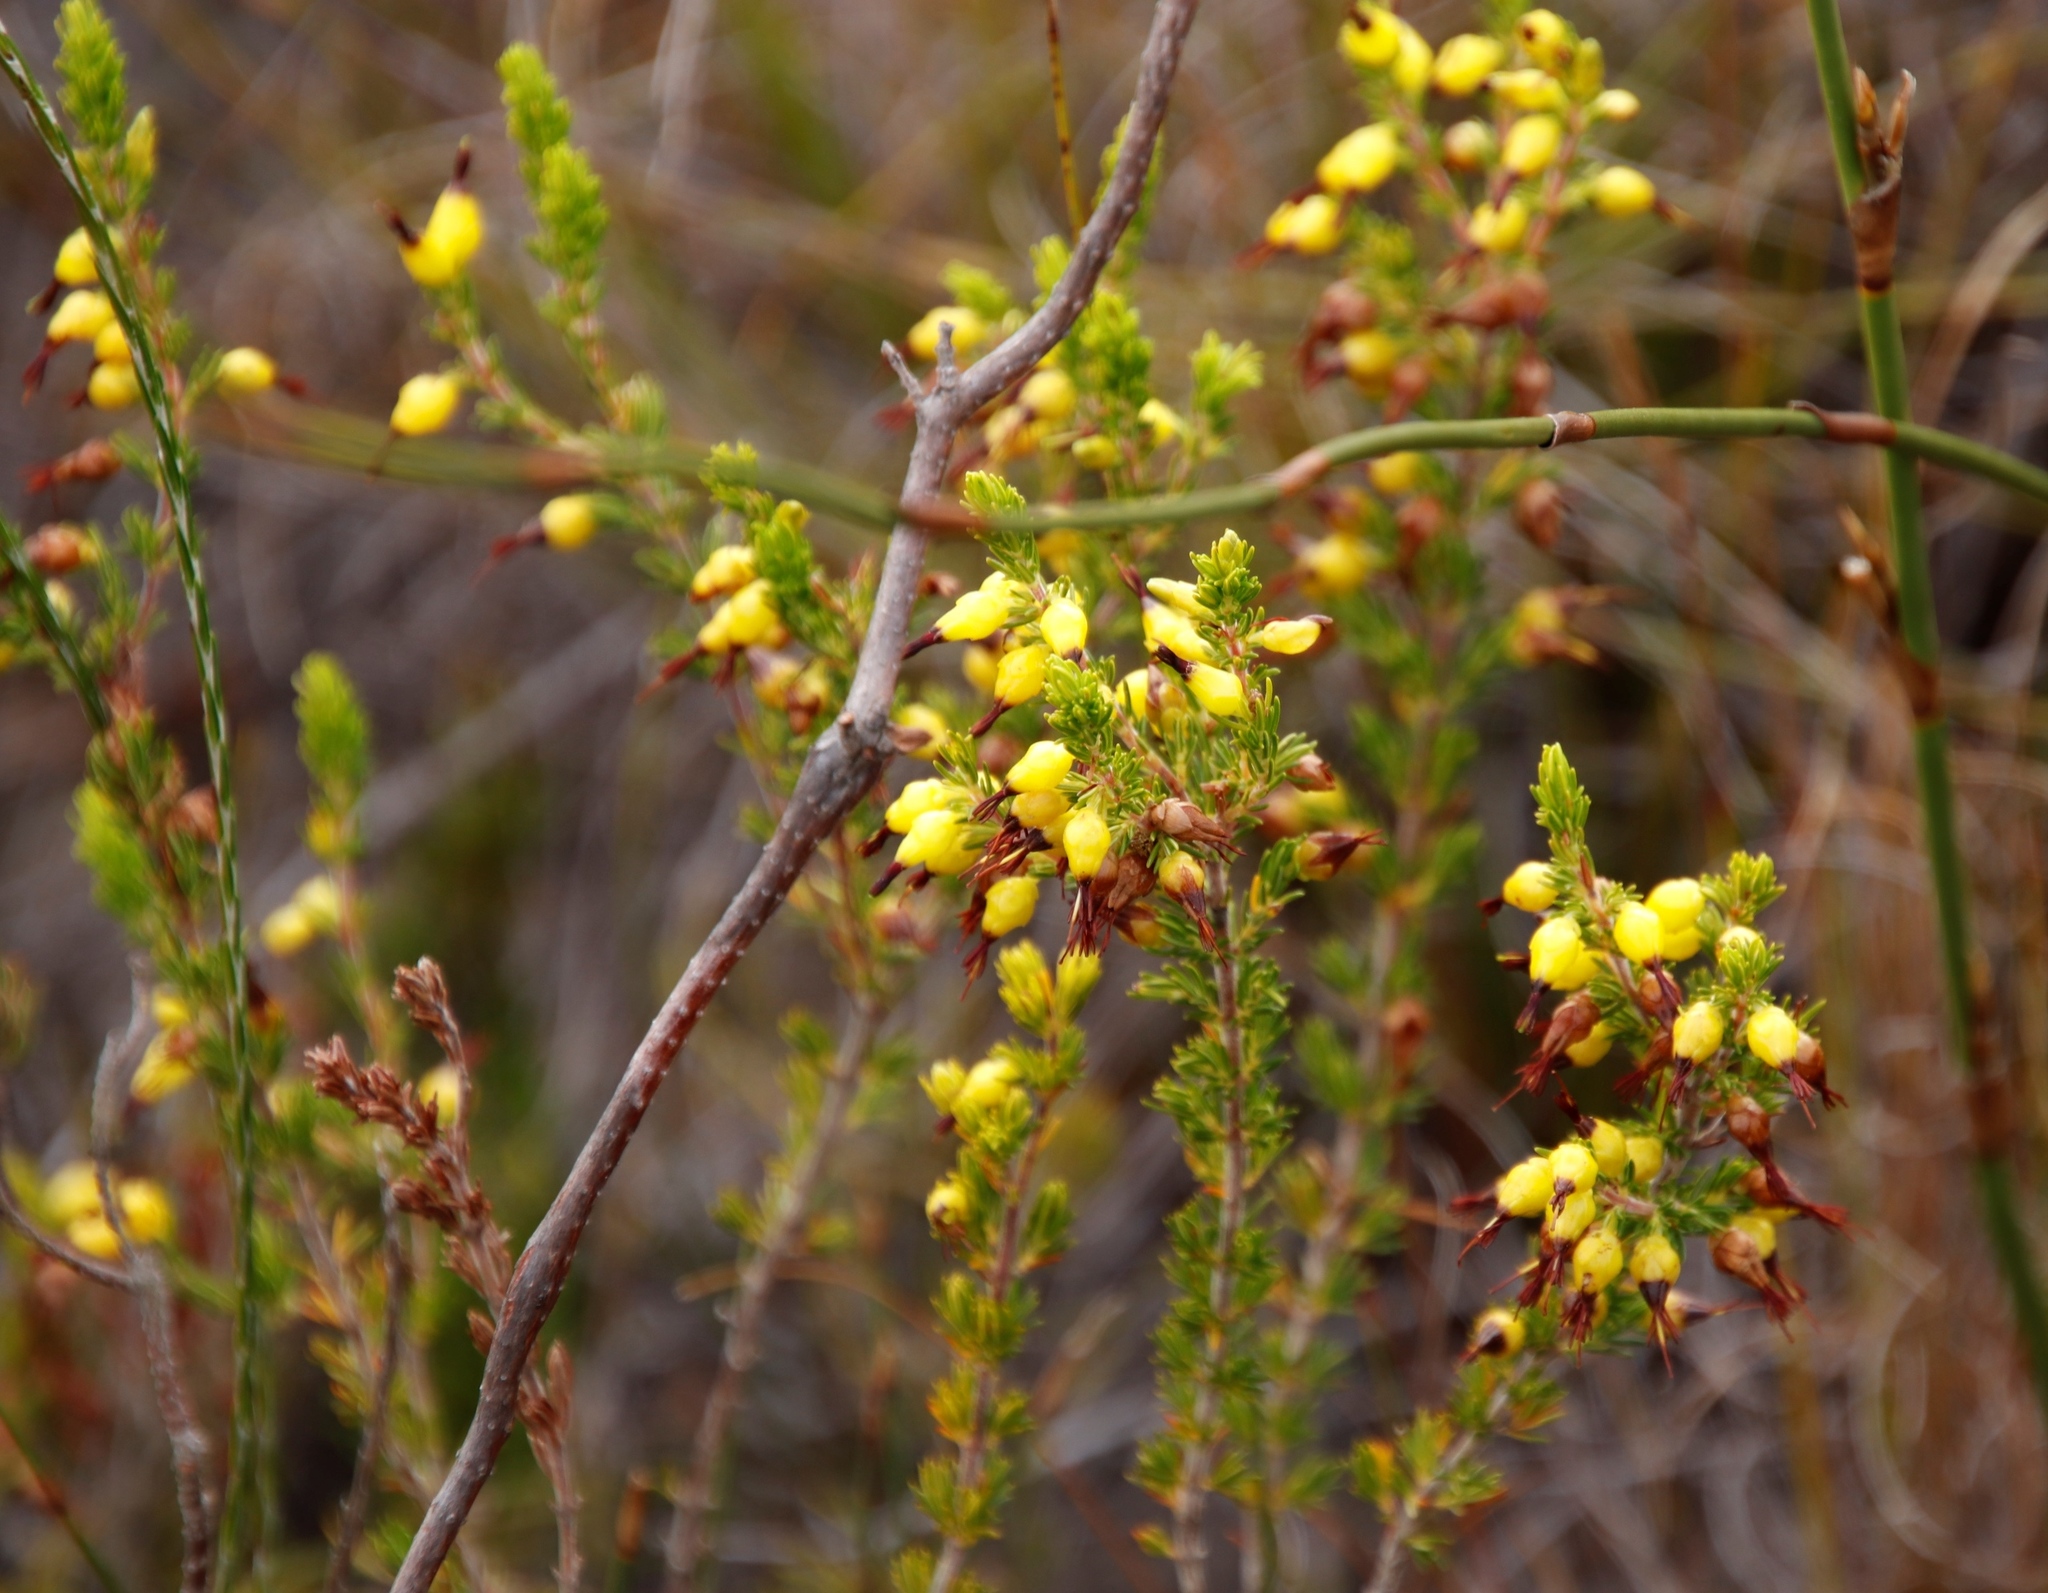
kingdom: Plantae
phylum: Tracheophyta
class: Magnoliopsida
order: Ericales
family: Ericaceae
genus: Erica
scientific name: Erica melastoma
